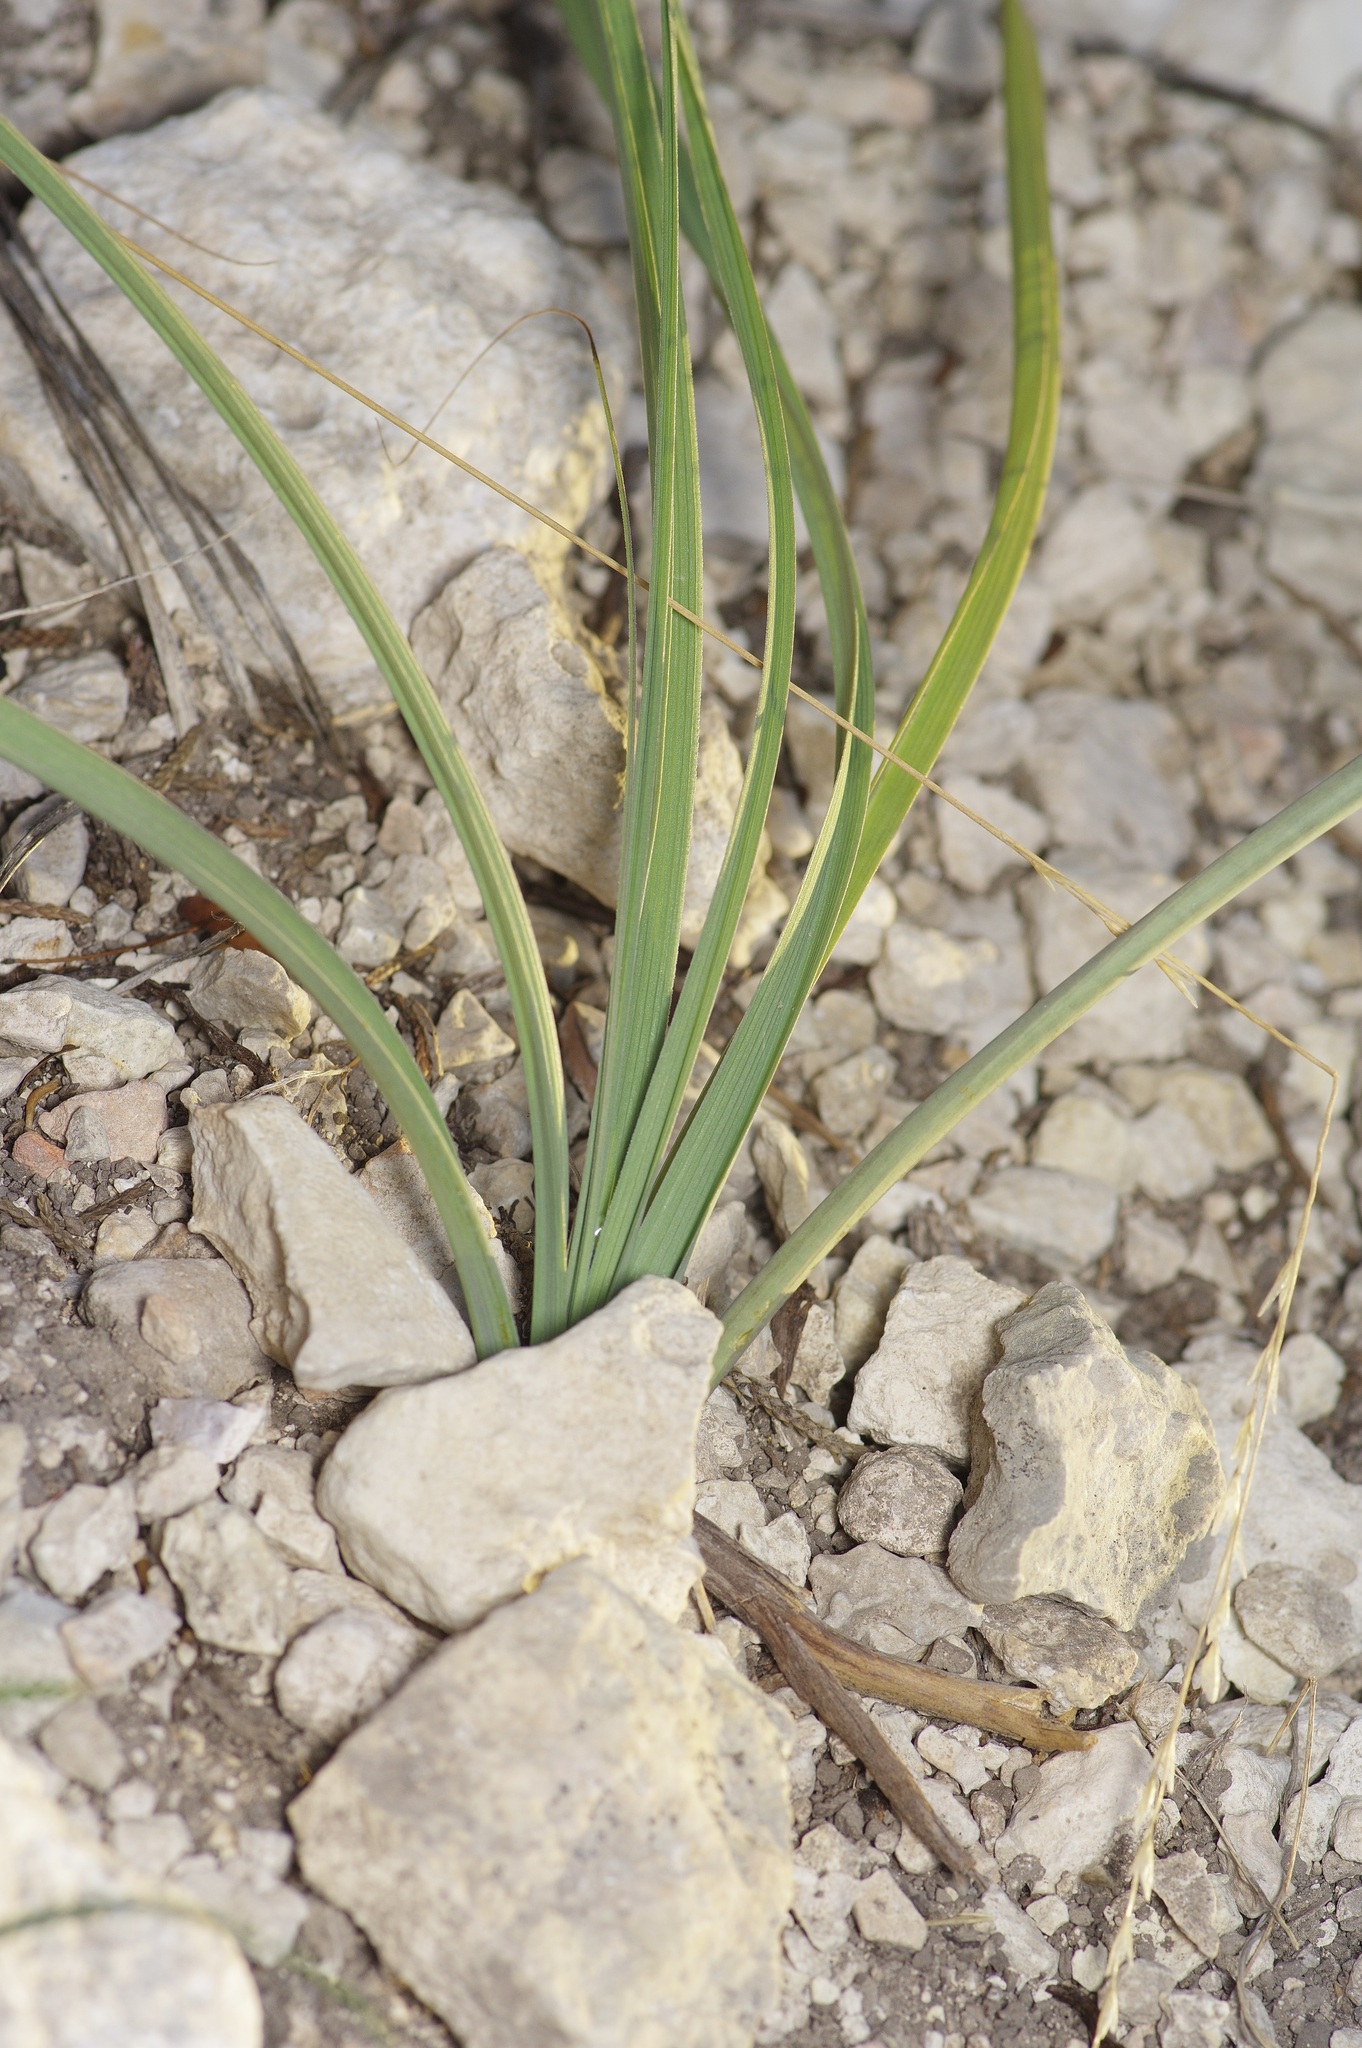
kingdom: Plantae
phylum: Tracheophyta
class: Liliopsida
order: Liliales
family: Melanthiaceae
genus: Schoenocaulon
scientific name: Schoenocaulon texanum
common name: Texas feather-shank
